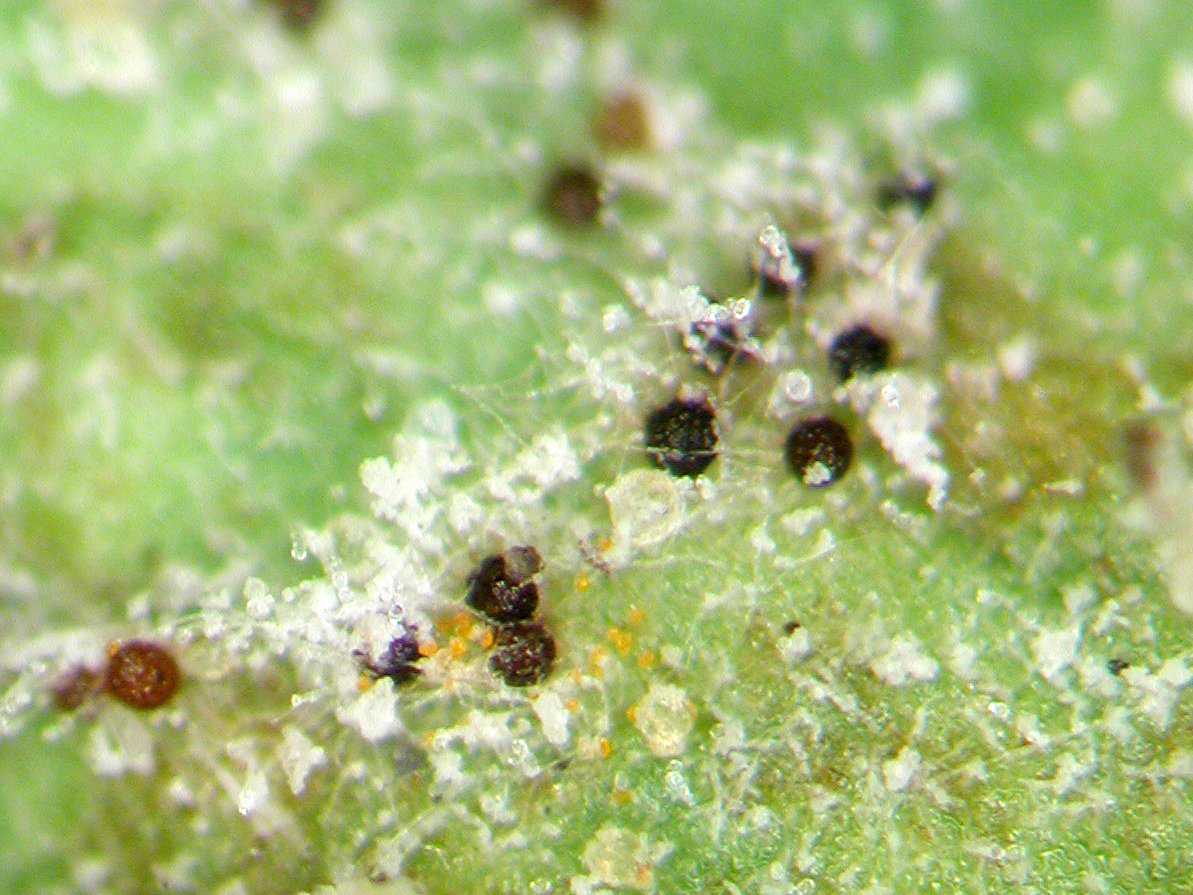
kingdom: Fungi
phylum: Ascomycota
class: Leotiomycetes
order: Helotiales
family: Erysiphaceae
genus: Podosphaera
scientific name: Podosphaera erodii
